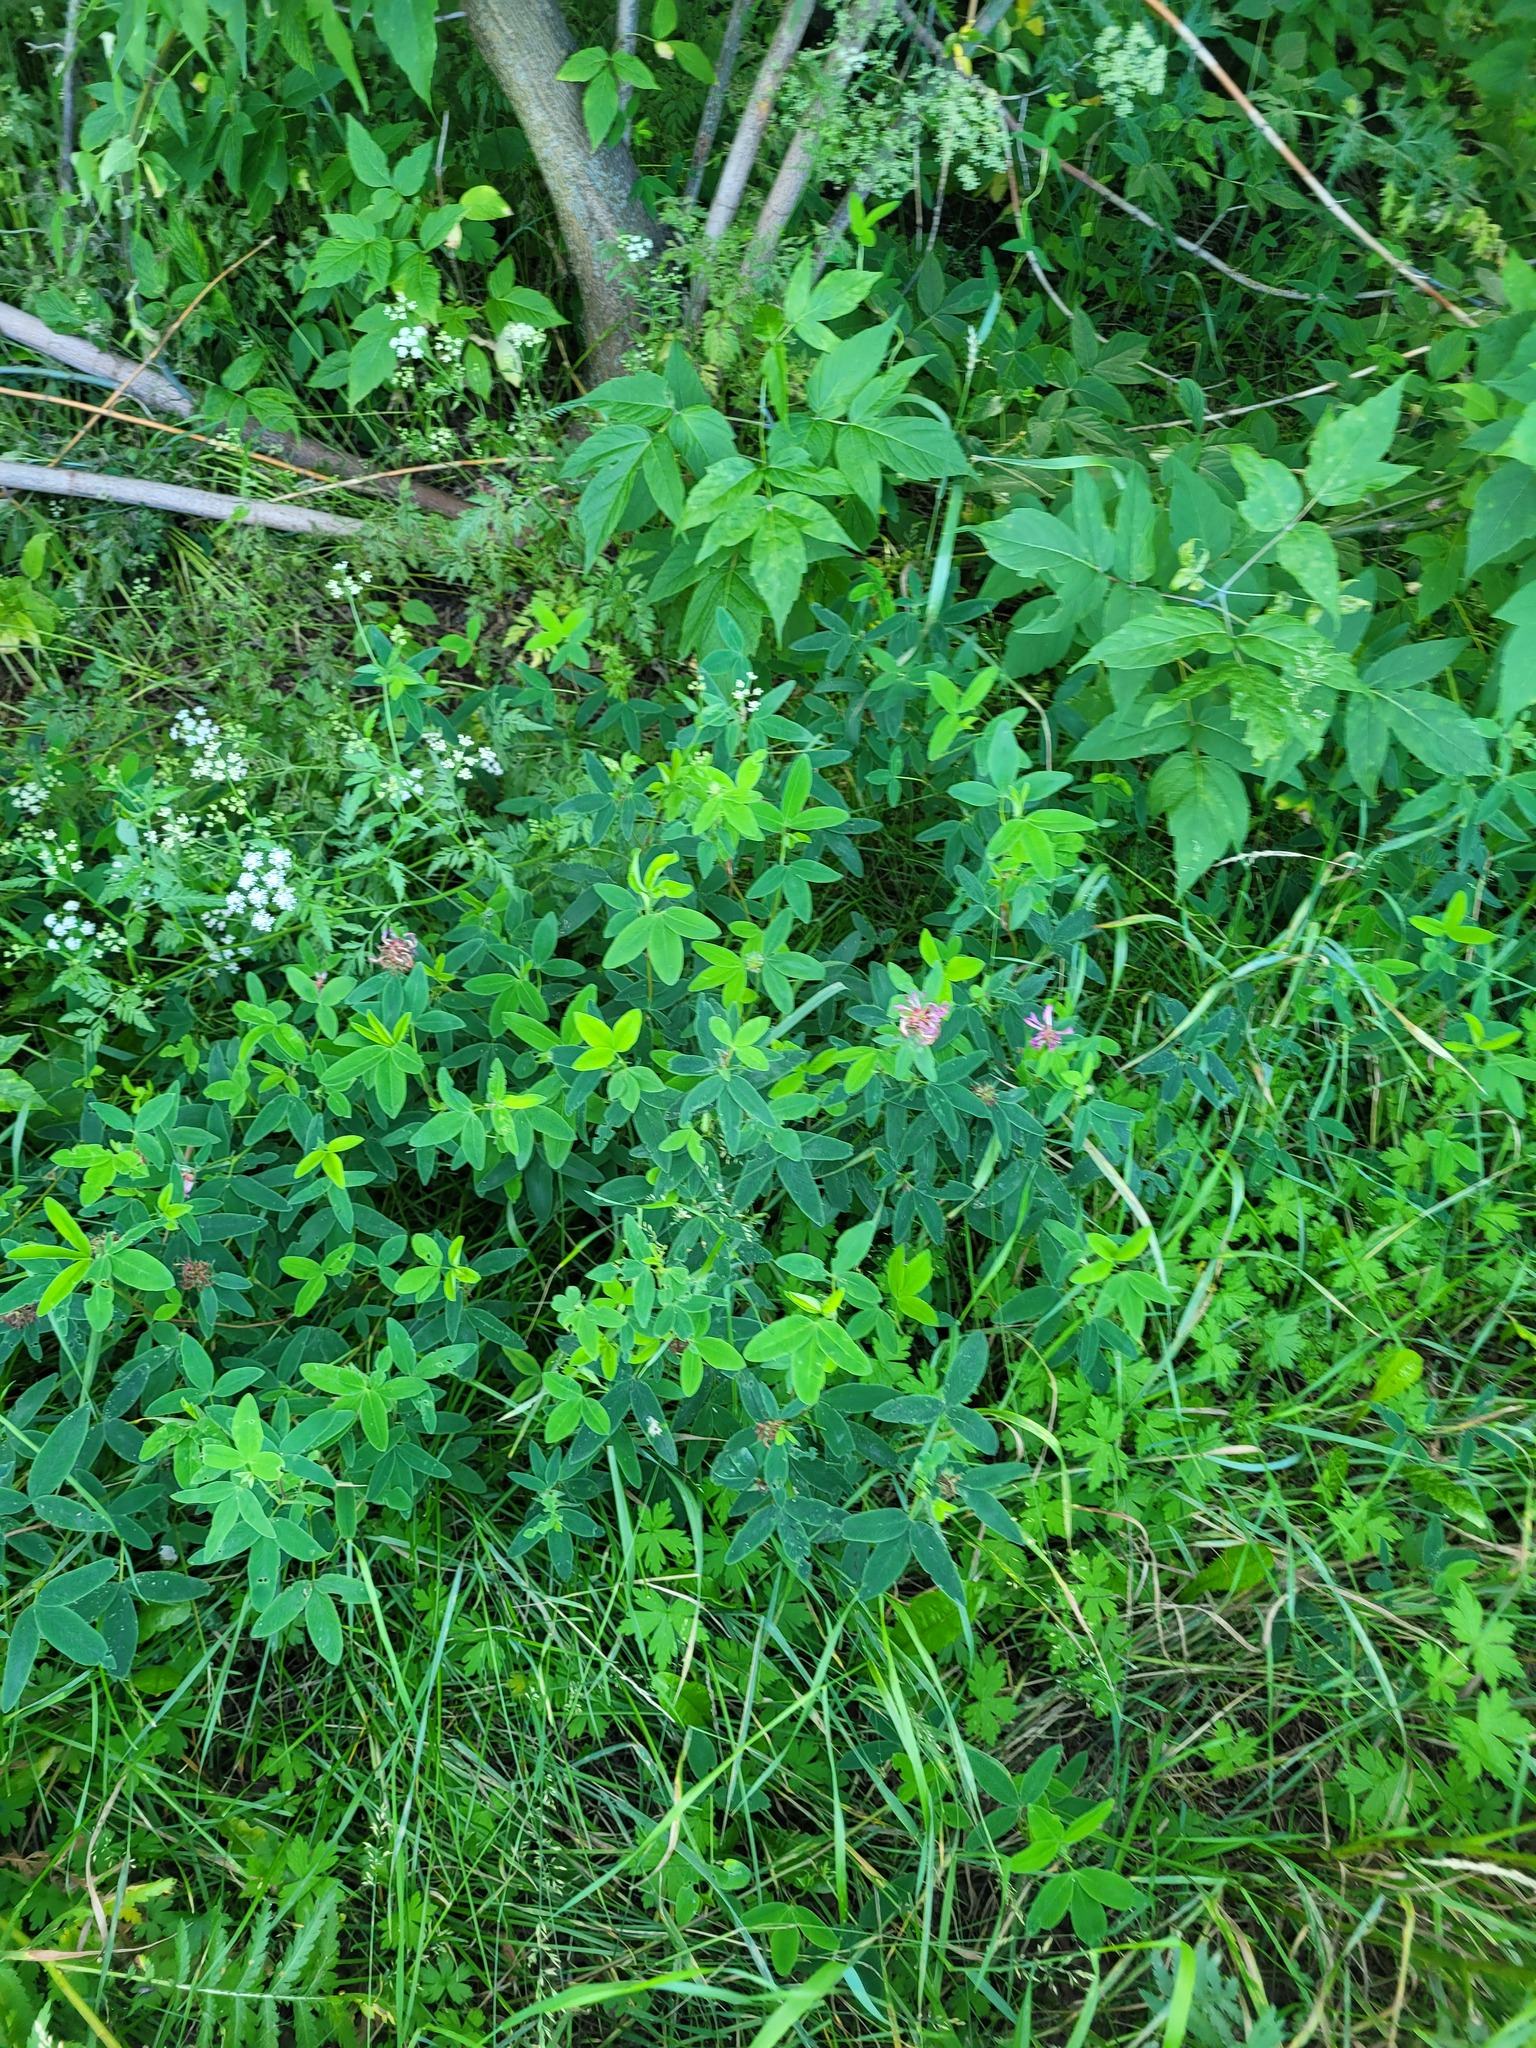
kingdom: Plantae
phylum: Tracheophyta
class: Magnoliopsida
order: Fabales
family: Fabaceae
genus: Trifolium
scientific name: Trifolium medium
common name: Zigzag clover
